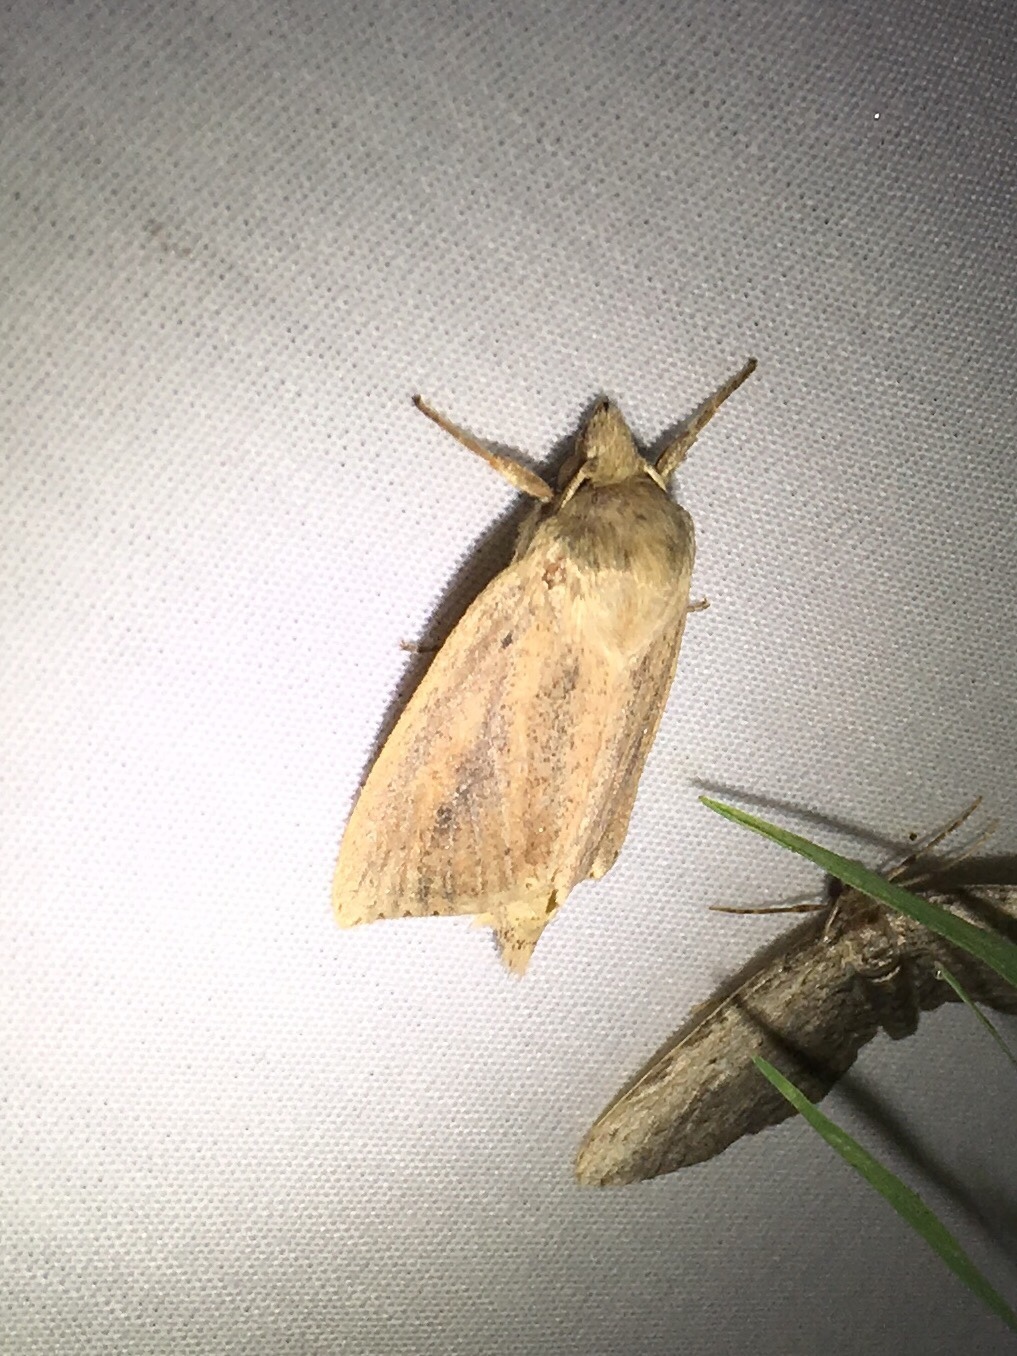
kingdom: Animalia
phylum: Arthropoda
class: Insecta
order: Lepidoptera
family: Noctuidae
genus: Globia
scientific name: Globia oblonga
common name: Oblong sedge borer moth
